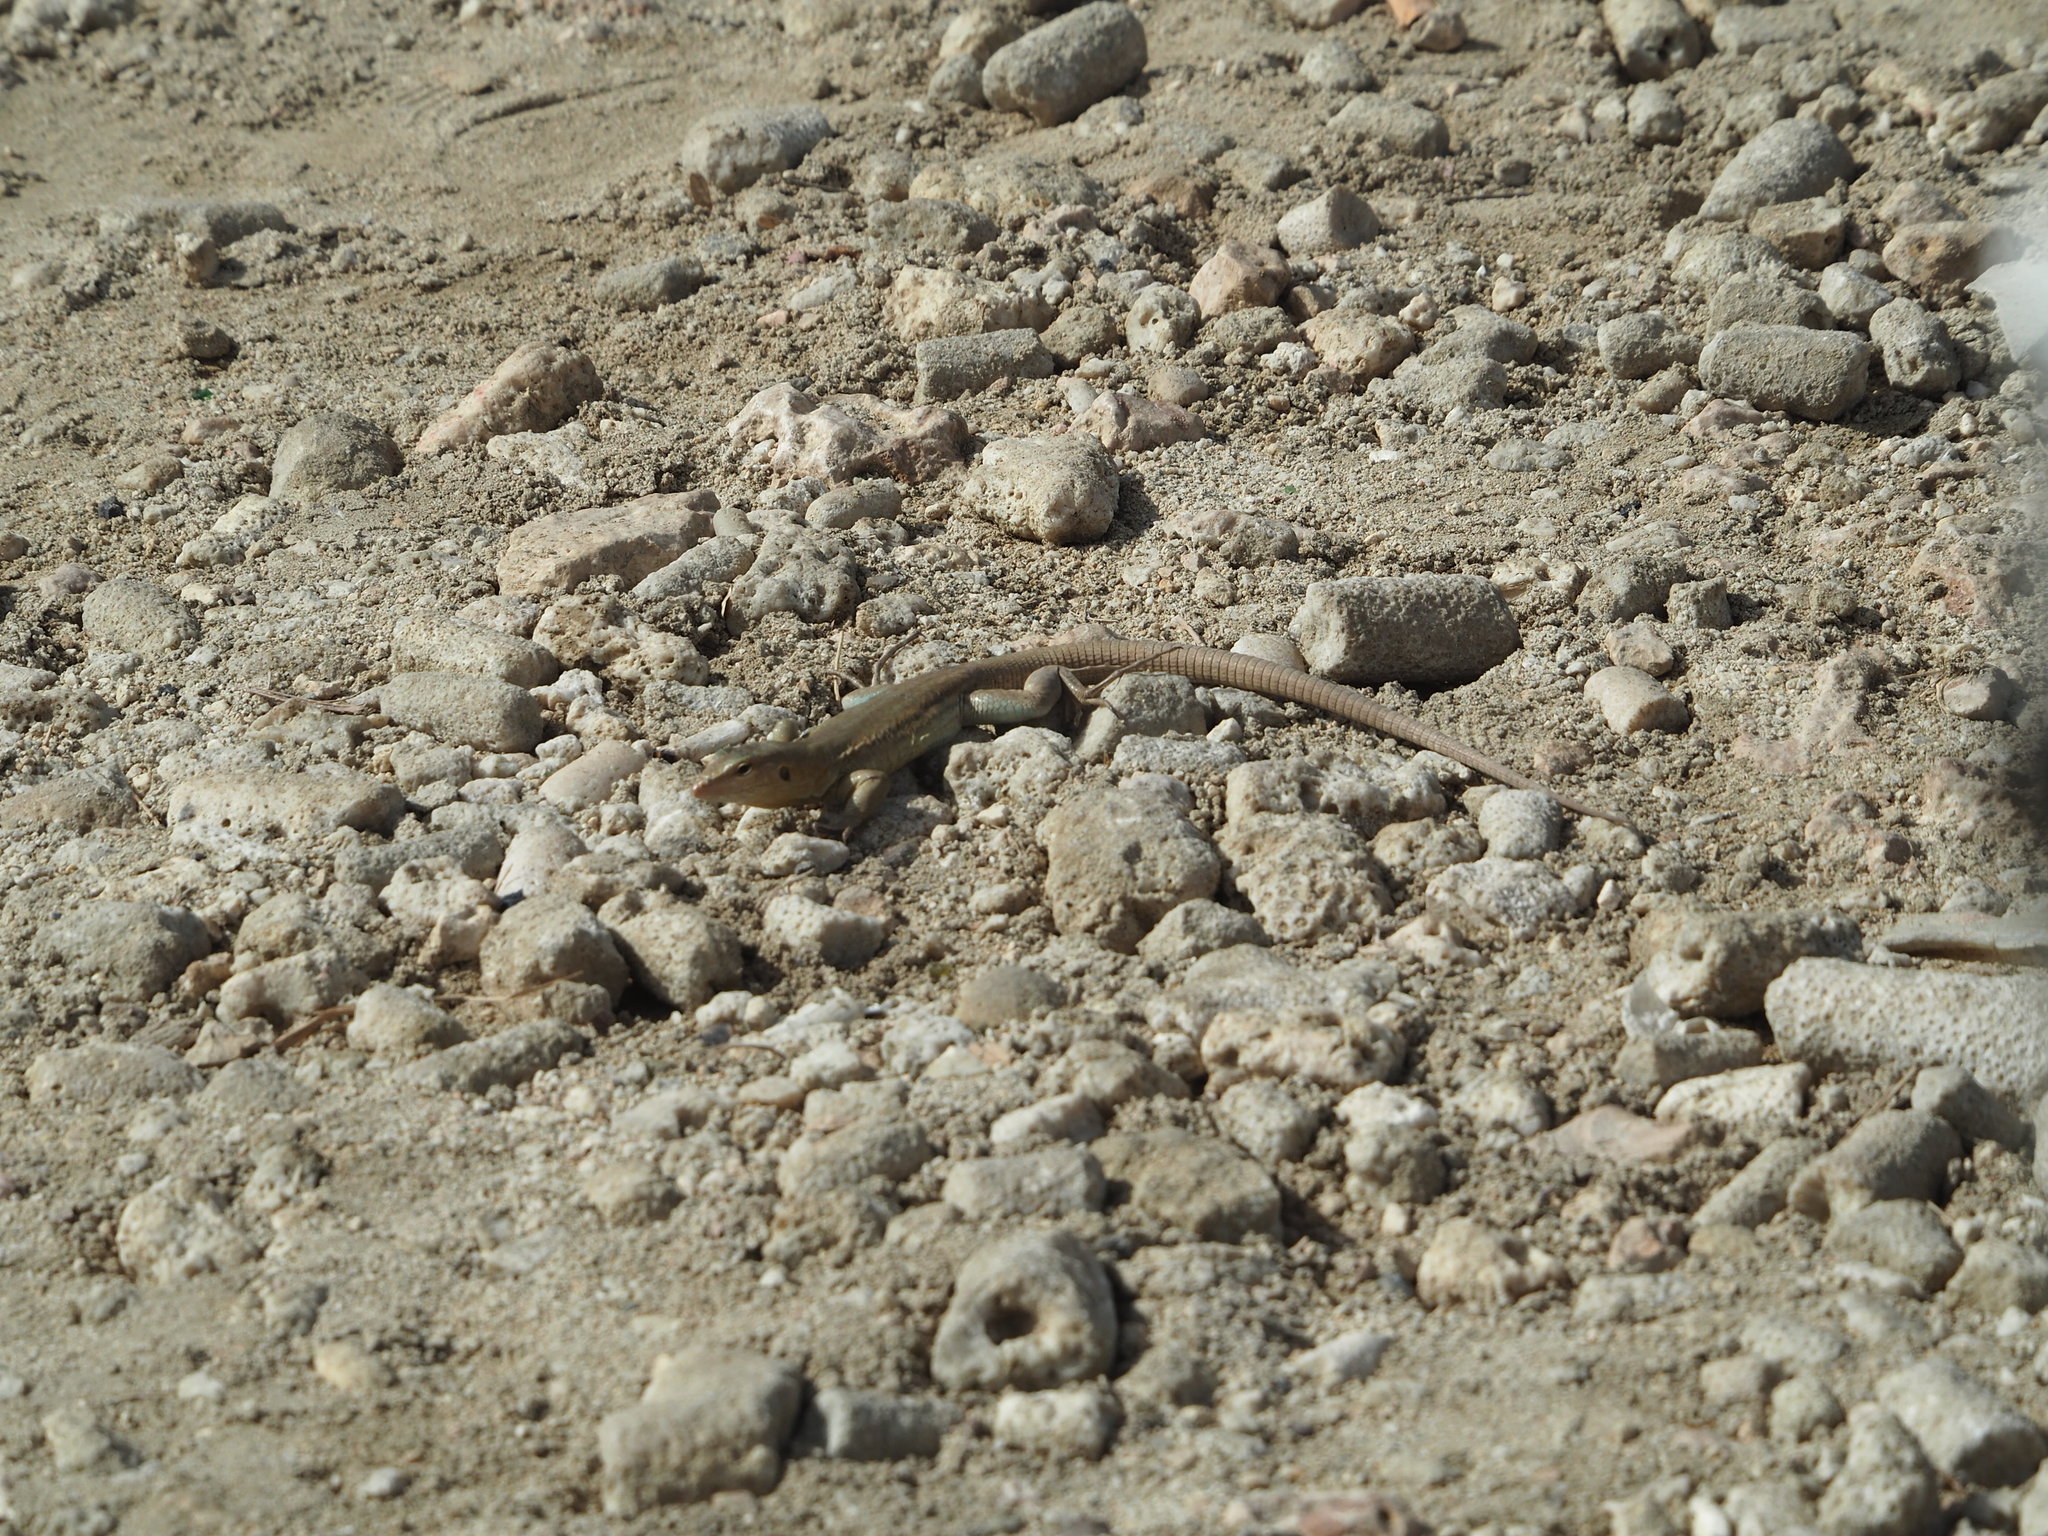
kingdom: Animalia
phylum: Chordata
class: Squamata
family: Teiidae
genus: Cnemidophorus
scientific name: Cnemidophorus ruthveni
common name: Bonaire whiptail
